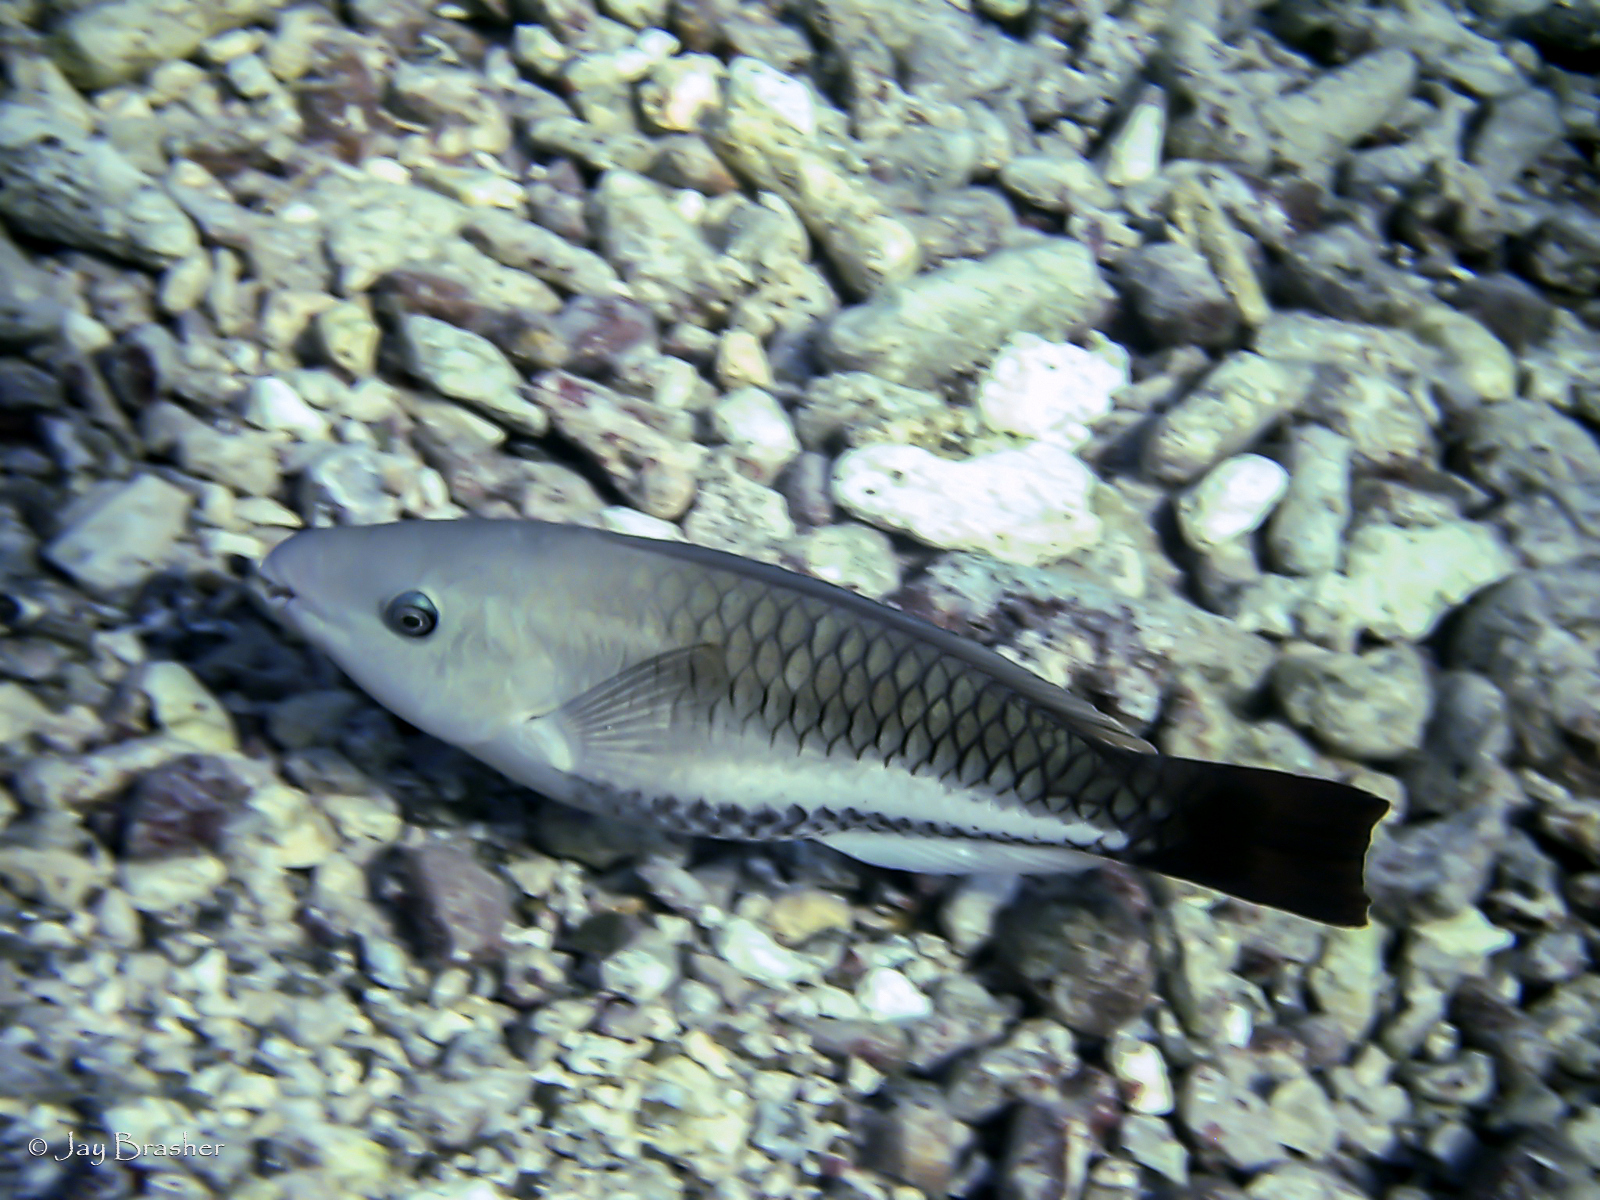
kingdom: Animalia
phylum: Chordata
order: Perciformes
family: Scaridae
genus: Scarus
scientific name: Scarus vetula
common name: Queen parrotfish
